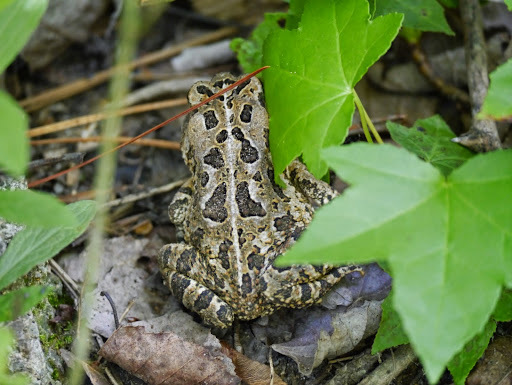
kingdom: Animalia
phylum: Chordata
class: Amphibia
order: Anura
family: Bufonidae
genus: Anaxyrus
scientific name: Anaxyrus fowleri
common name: Fowler's toad
